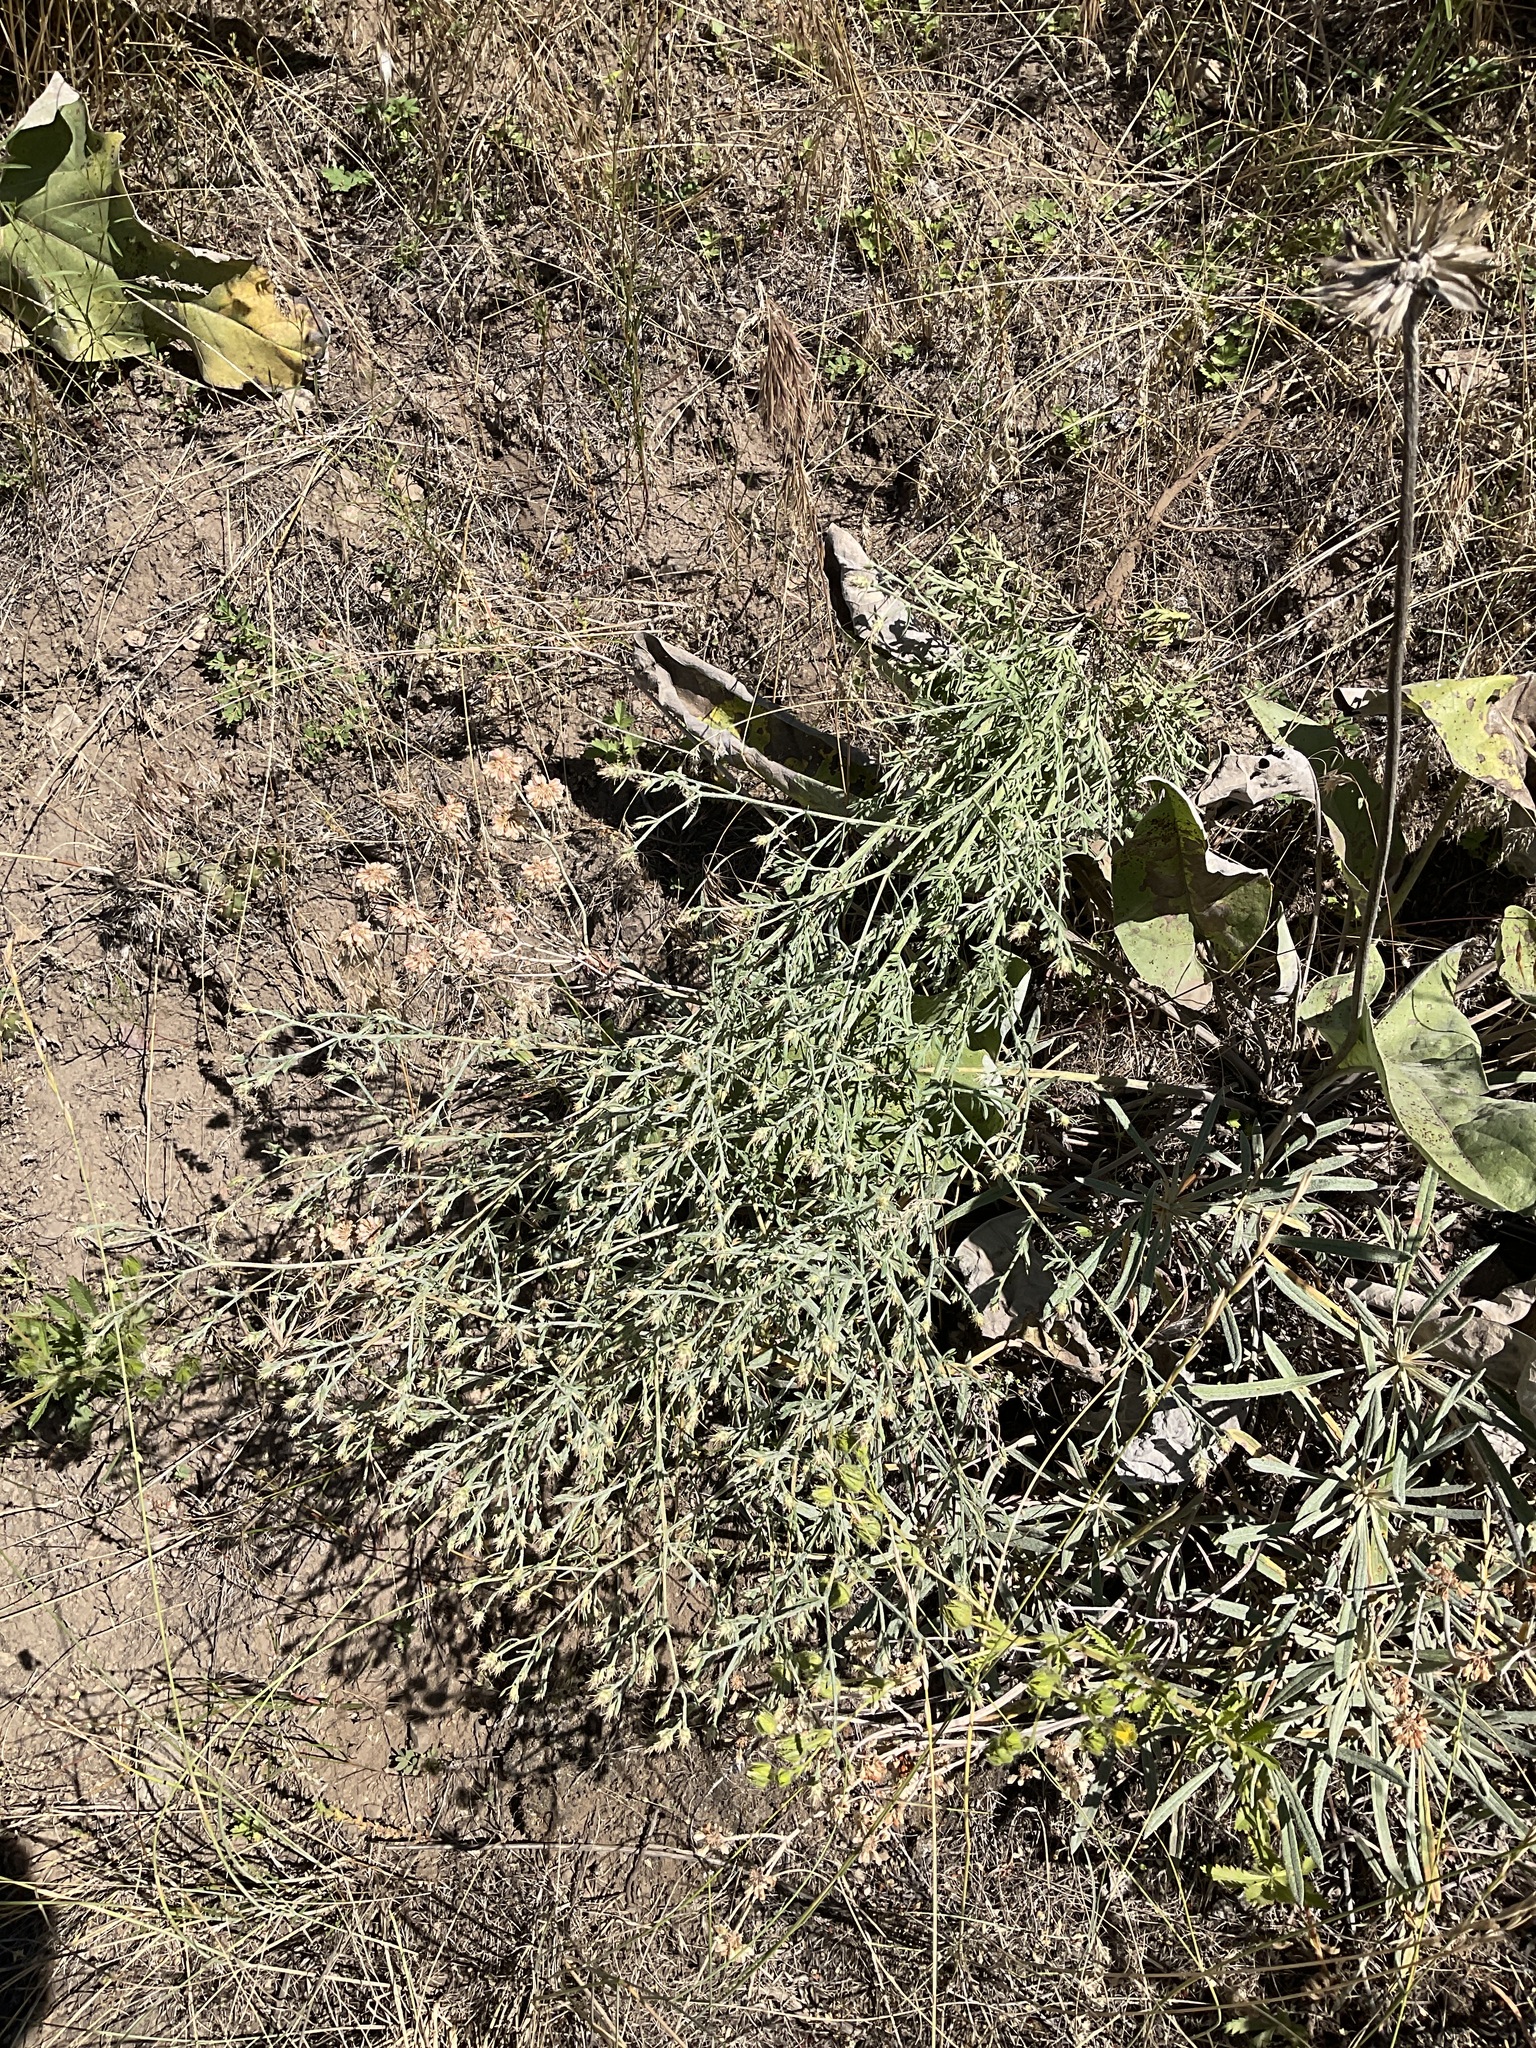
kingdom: Plantae
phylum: Tracheophyta
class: Magnoliopsida
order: Asterales
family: Asteraceae
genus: Centaurea
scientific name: Centaurea diffusa
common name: Diffuse knapweed
